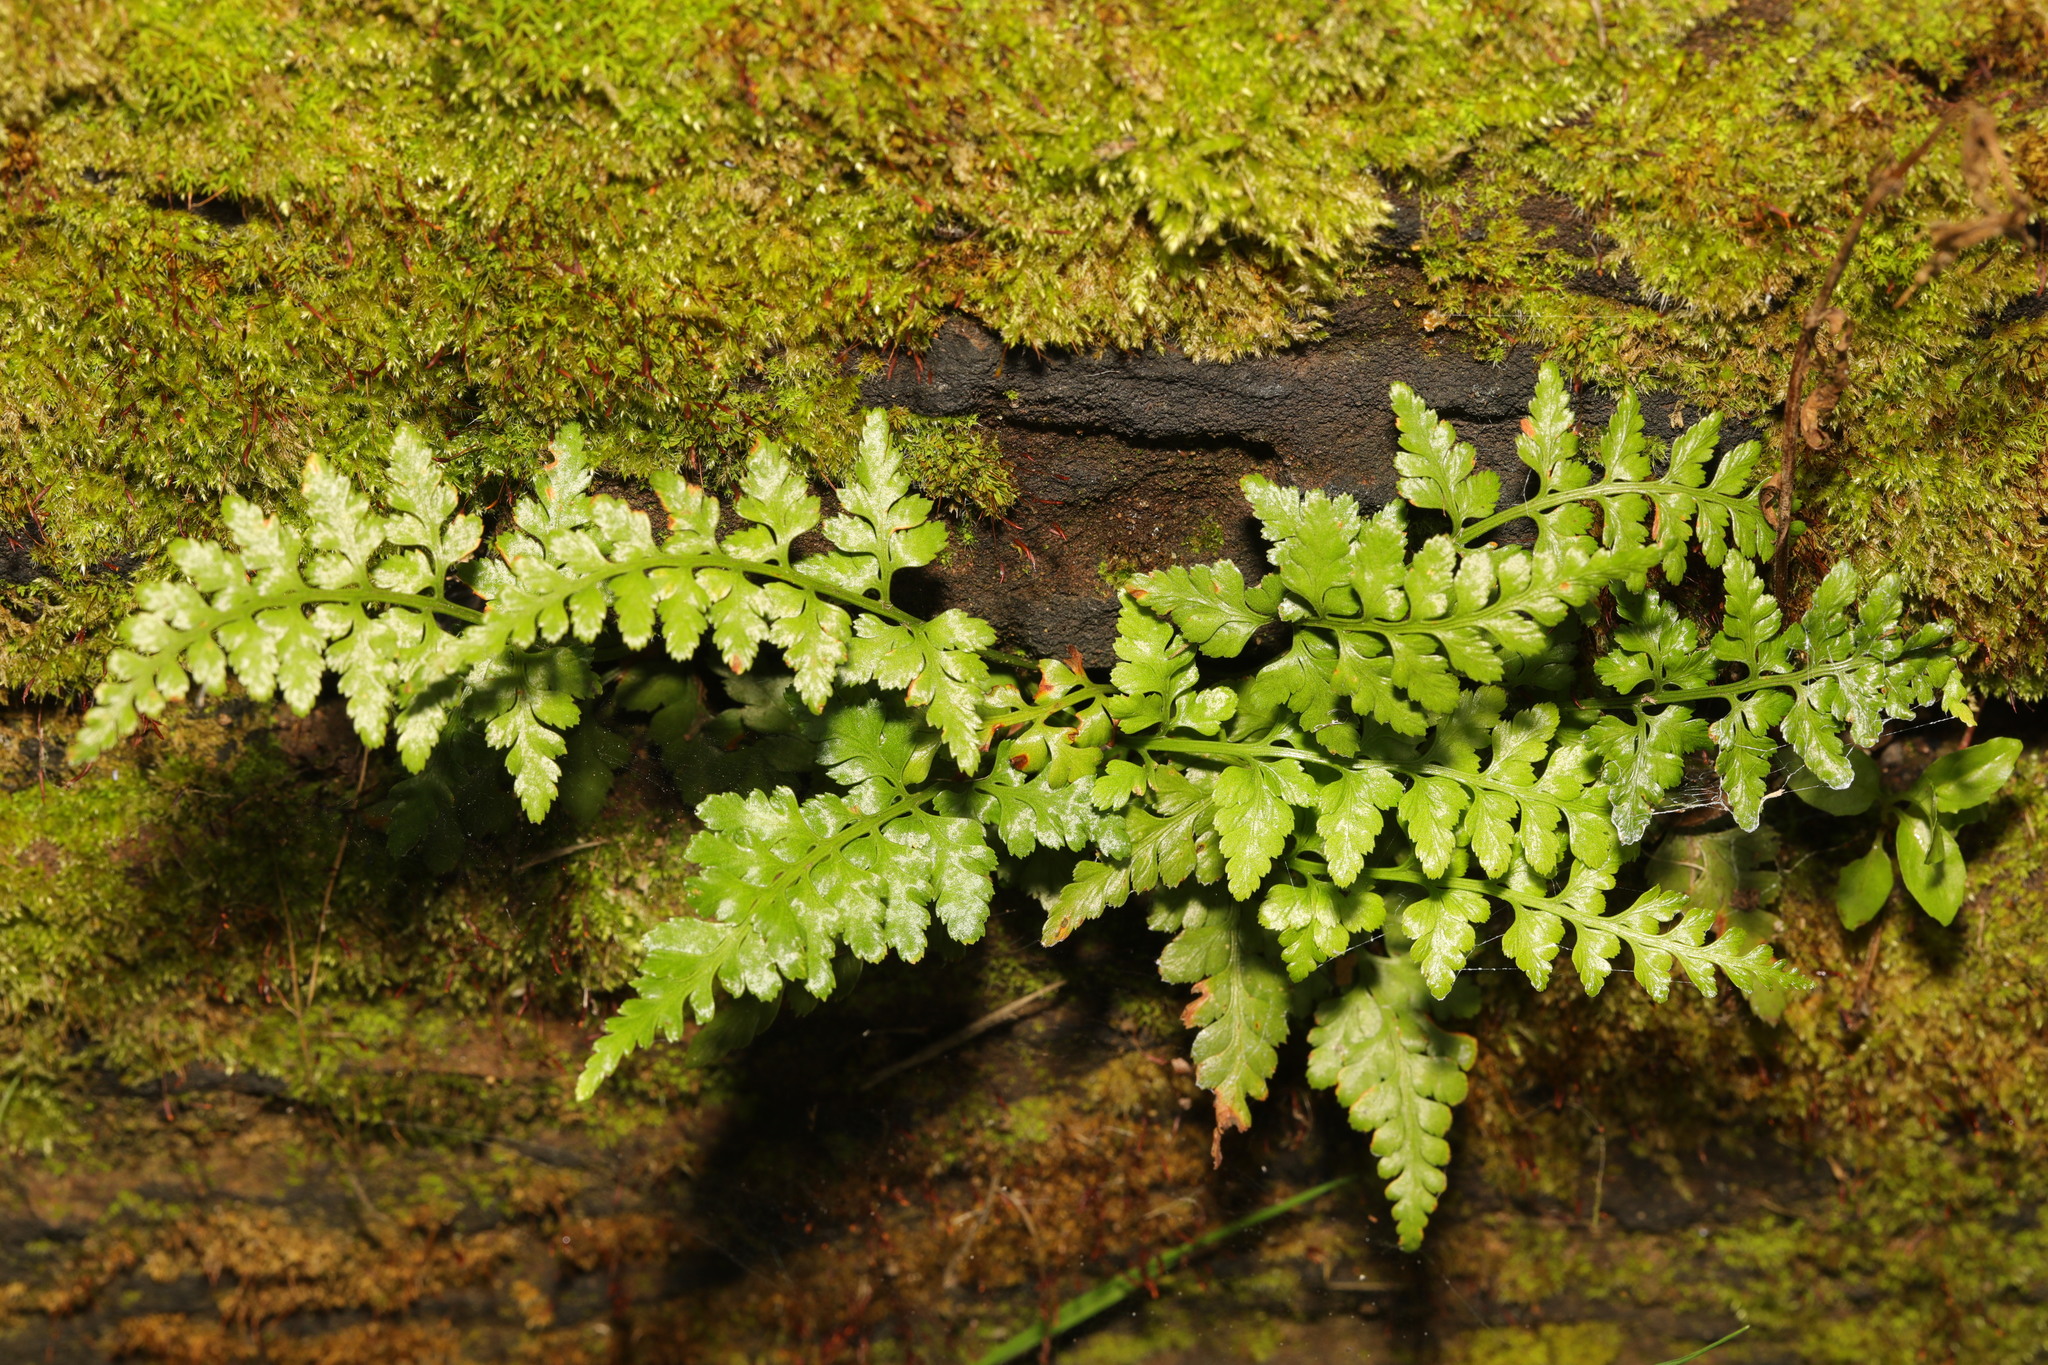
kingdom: Plantae
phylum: Tracheophyta
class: Polypodiopsida
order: Polypodiales
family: Aspleniaceae
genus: Asplenium
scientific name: Asplenium adiantum-nigrum
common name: Black spleenwort
